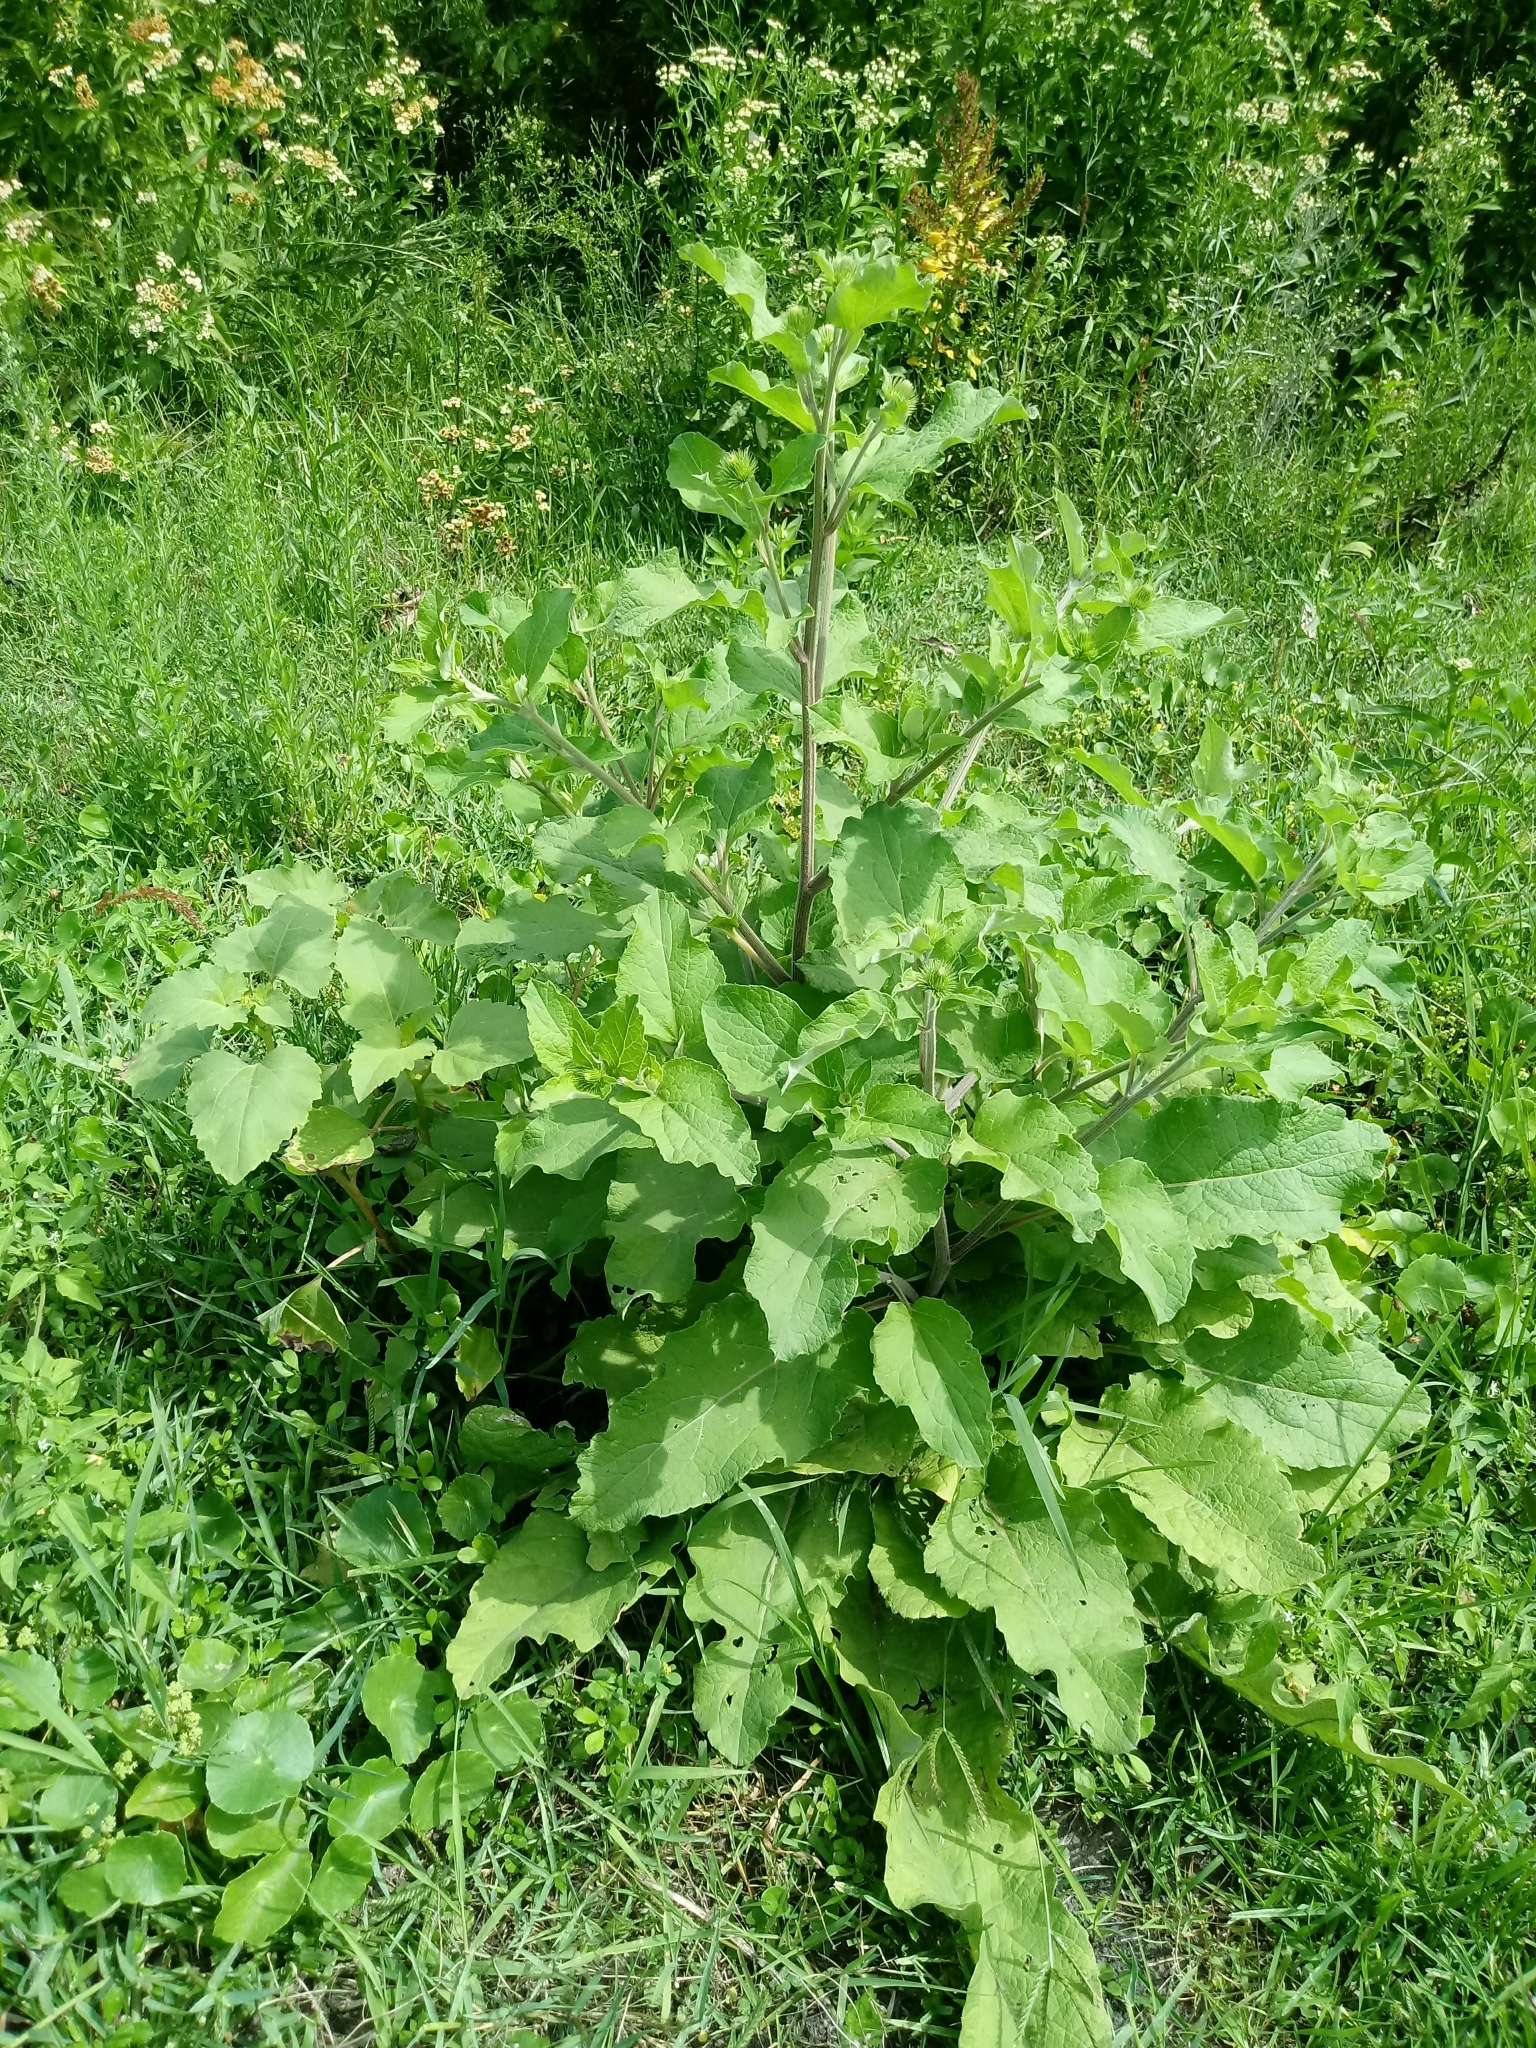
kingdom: Plantae
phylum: Tracheophyta
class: Magnoliopsida
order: Asterales
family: Asteraceae
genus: Arctium
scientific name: Arctium minus
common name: Lesser burdock
